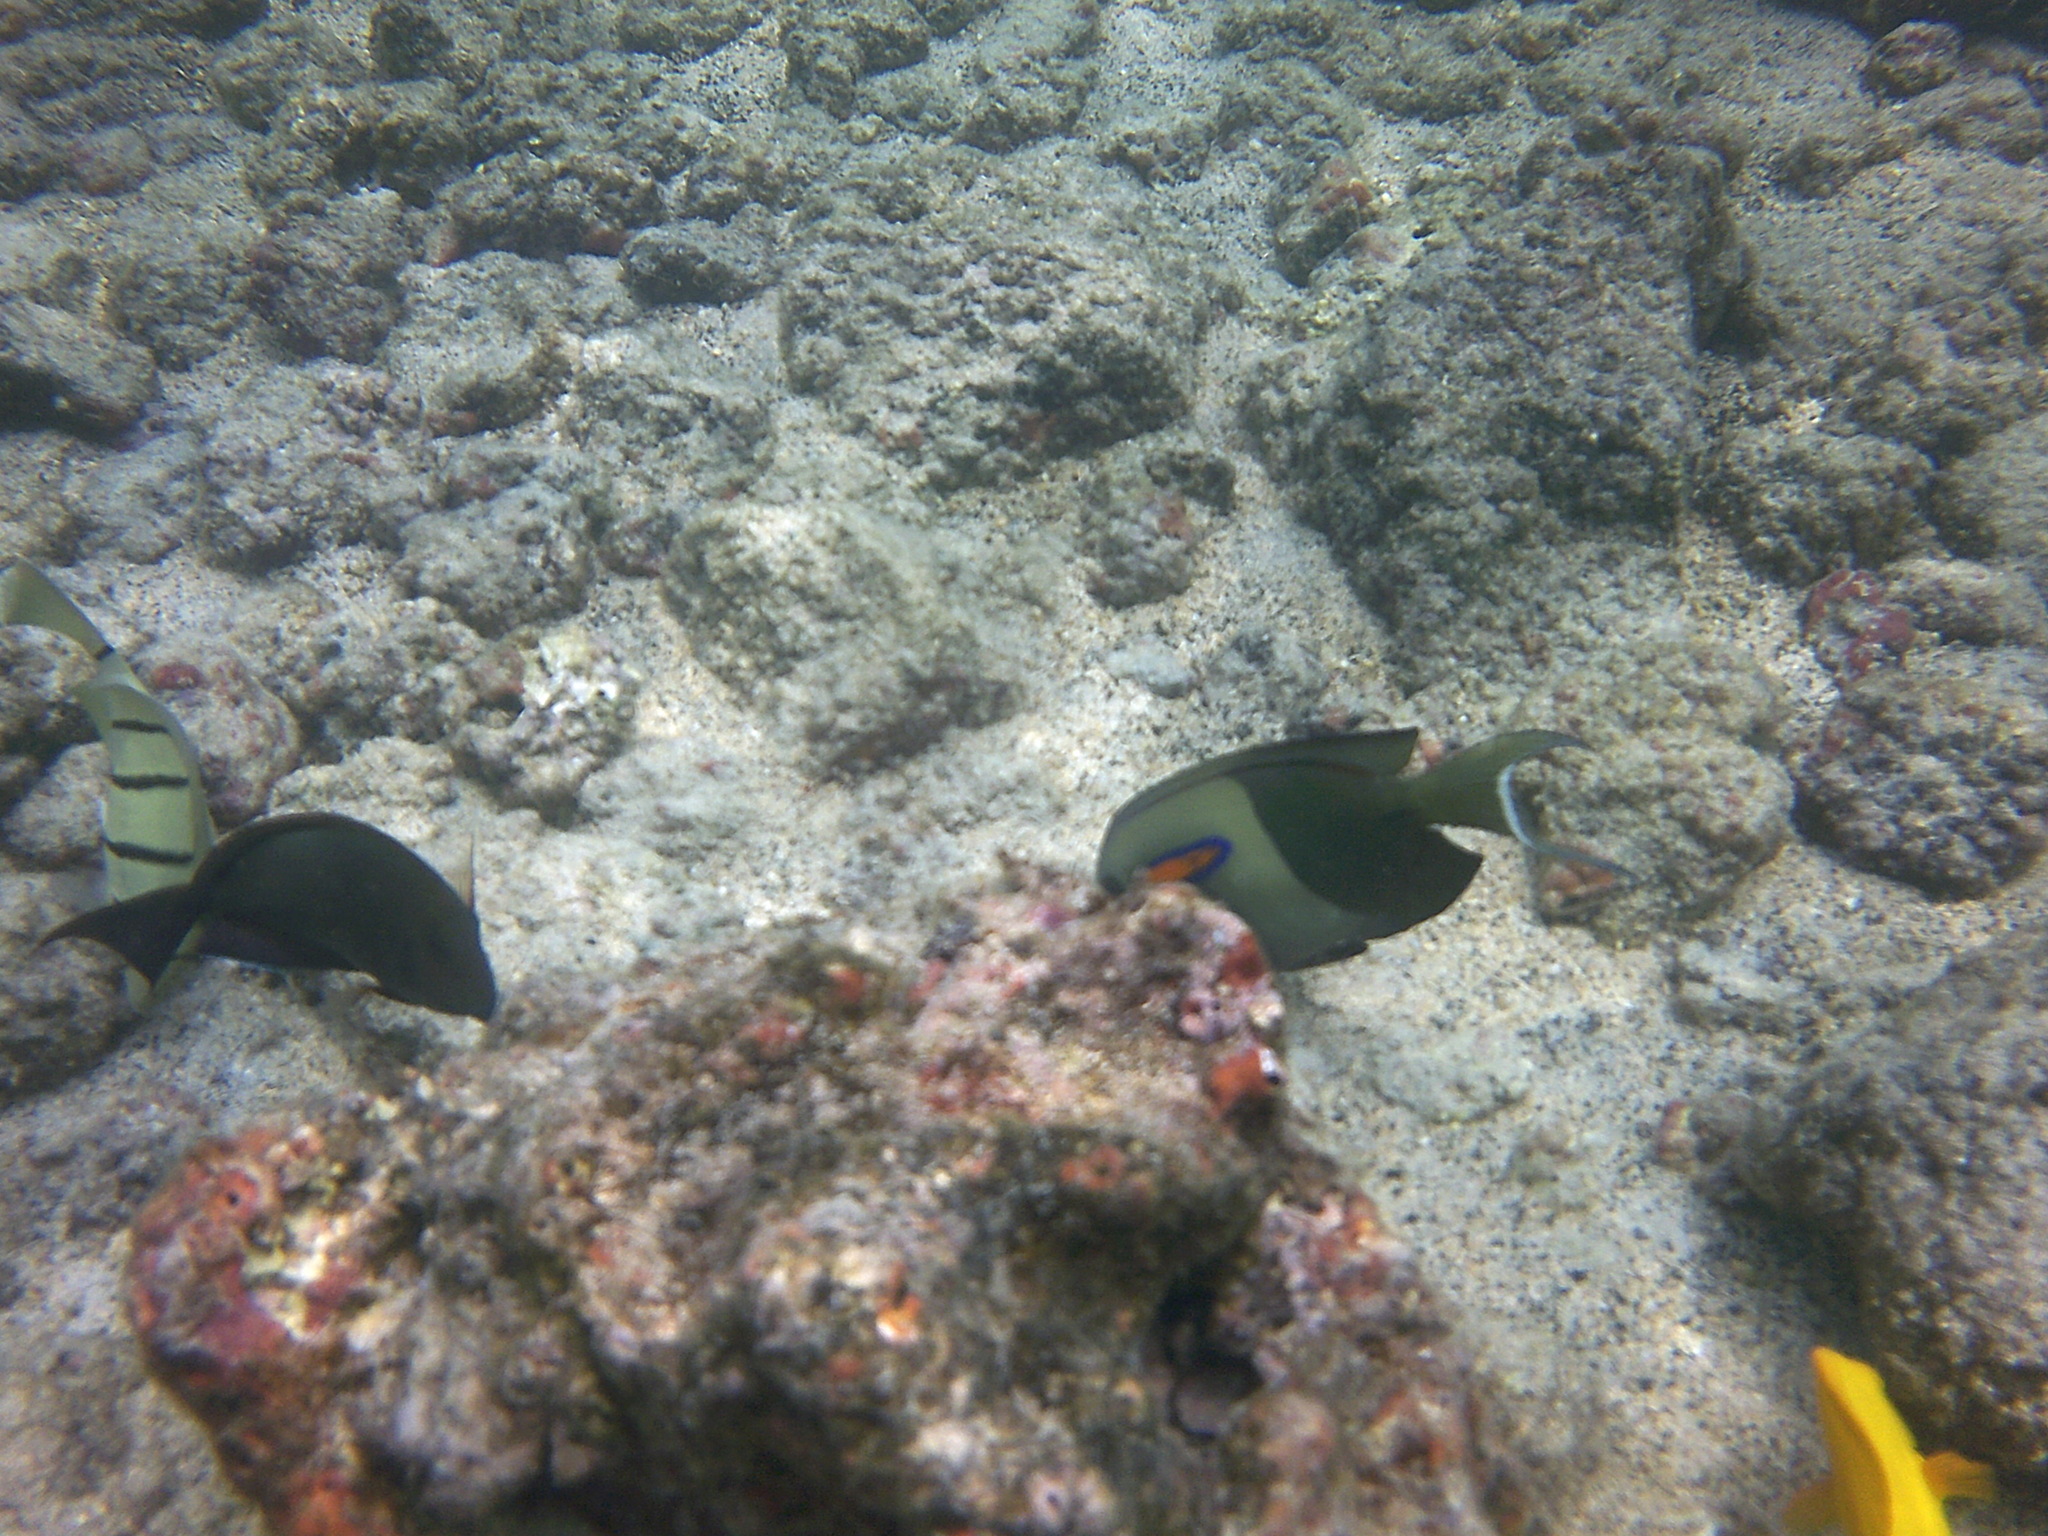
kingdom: Animalia
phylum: Chordata
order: Perciformes
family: Acanthuridae
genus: Acanthurus
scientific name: Acanthurus olivaceus
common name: Gendarme fish
